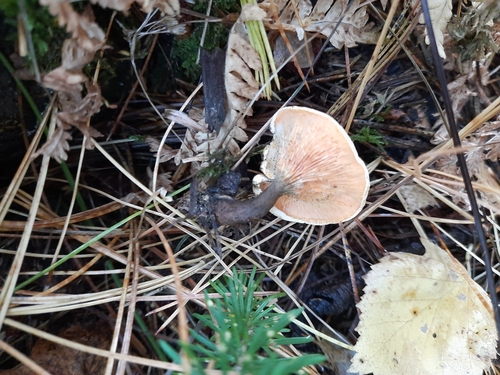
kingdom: Fungi
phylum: Basidiomycota
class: Agaricomycetes
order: Boletales
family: Hygrophoropsidaceae
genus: Hygrophoropsis
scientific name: Hygrophoropsis
